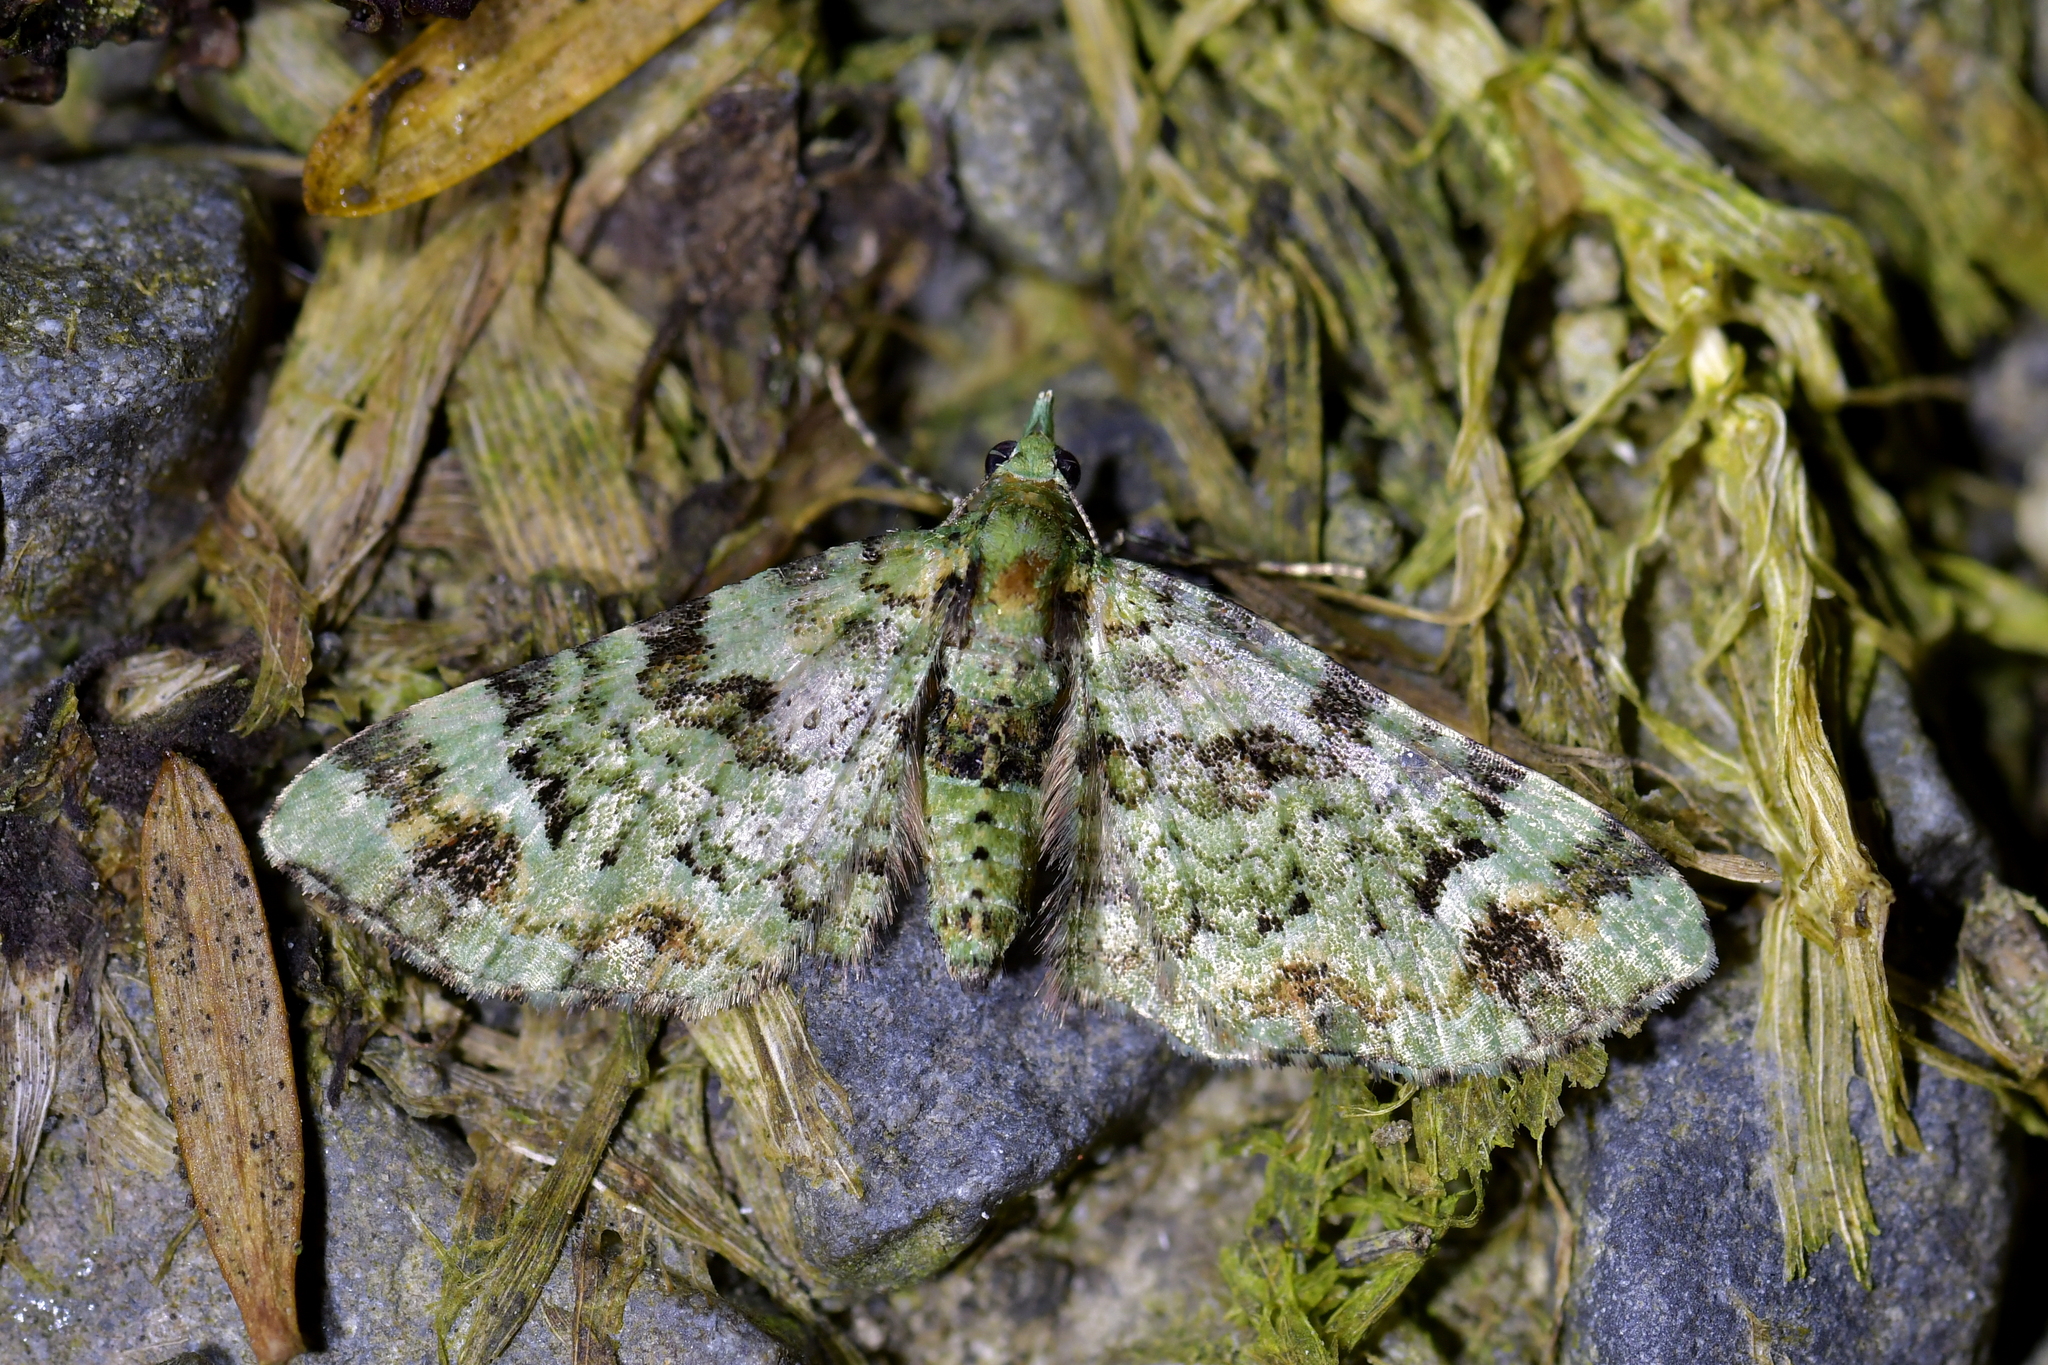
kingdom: Animalia
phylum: Arthropoda
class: Insecta
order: Lepidoptera
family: Geometridae
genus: Pasiphila
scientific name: Pasiphila bilineolata
